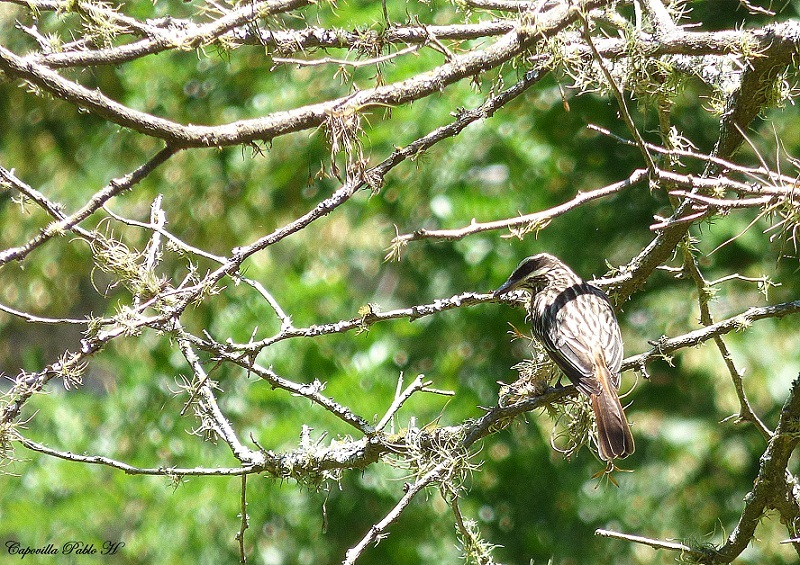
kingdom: Animalia
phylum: Chordata
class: Aves
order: Passeriformes
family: Tyrannidae
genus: Myiodynastes
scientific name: Myiodynastes maculatus
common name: Streaked flycatcher
